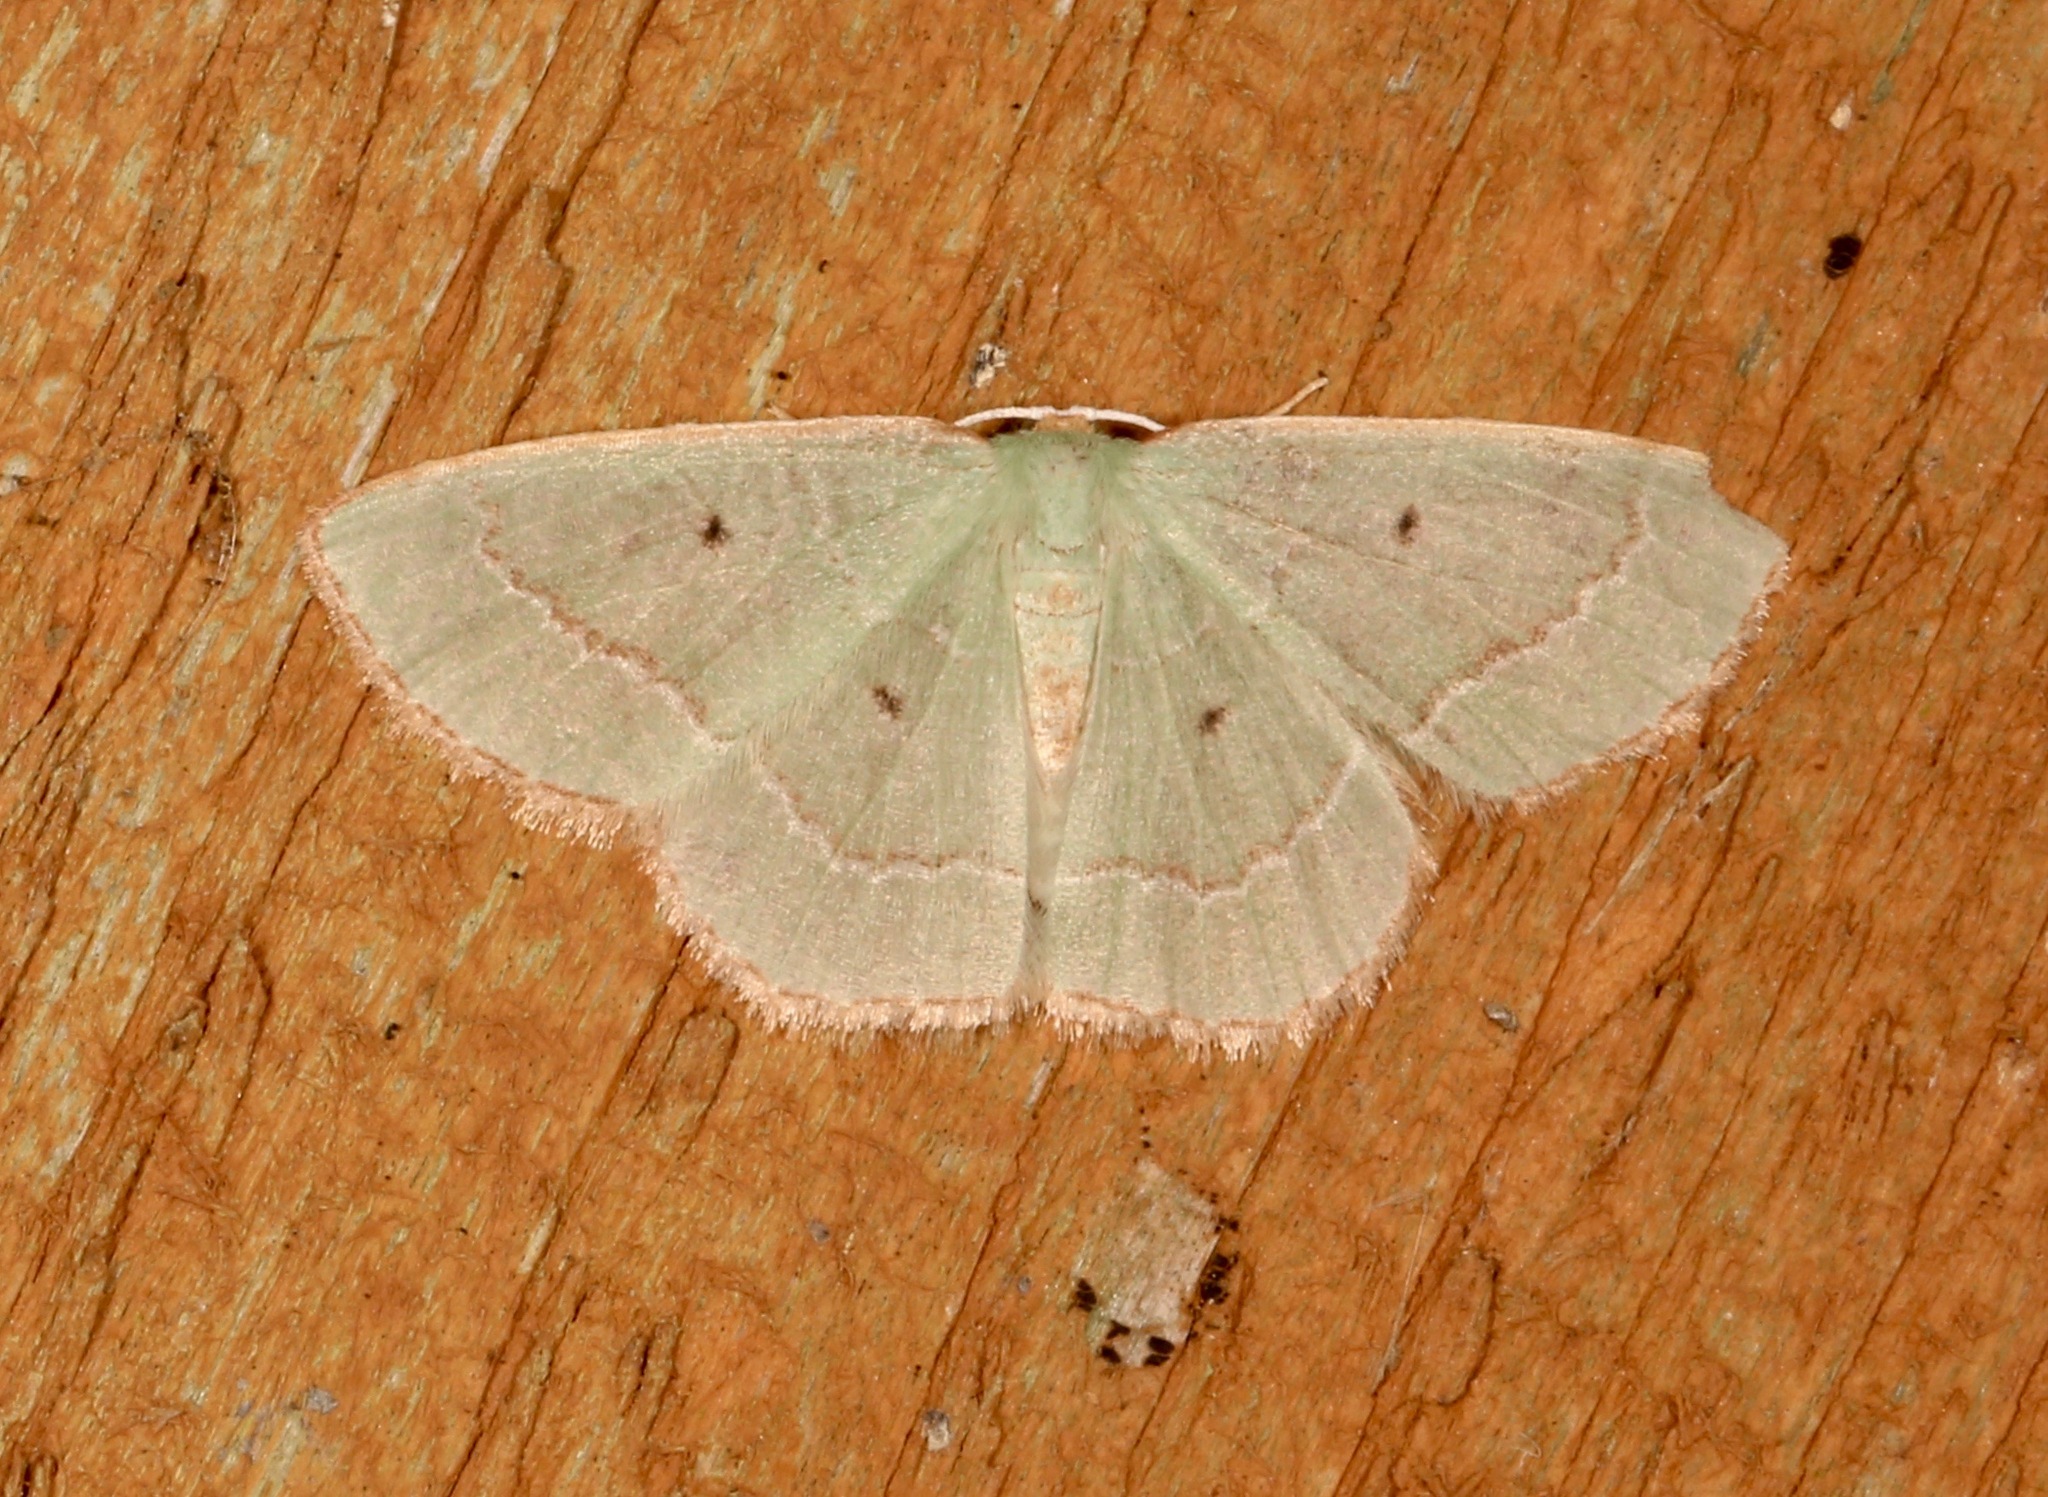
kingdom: Animalia
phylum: Arthropoda
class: Insecta
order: Lepidoptera
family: Geometridae
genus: Nemoria
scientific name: Nemoria elfa
